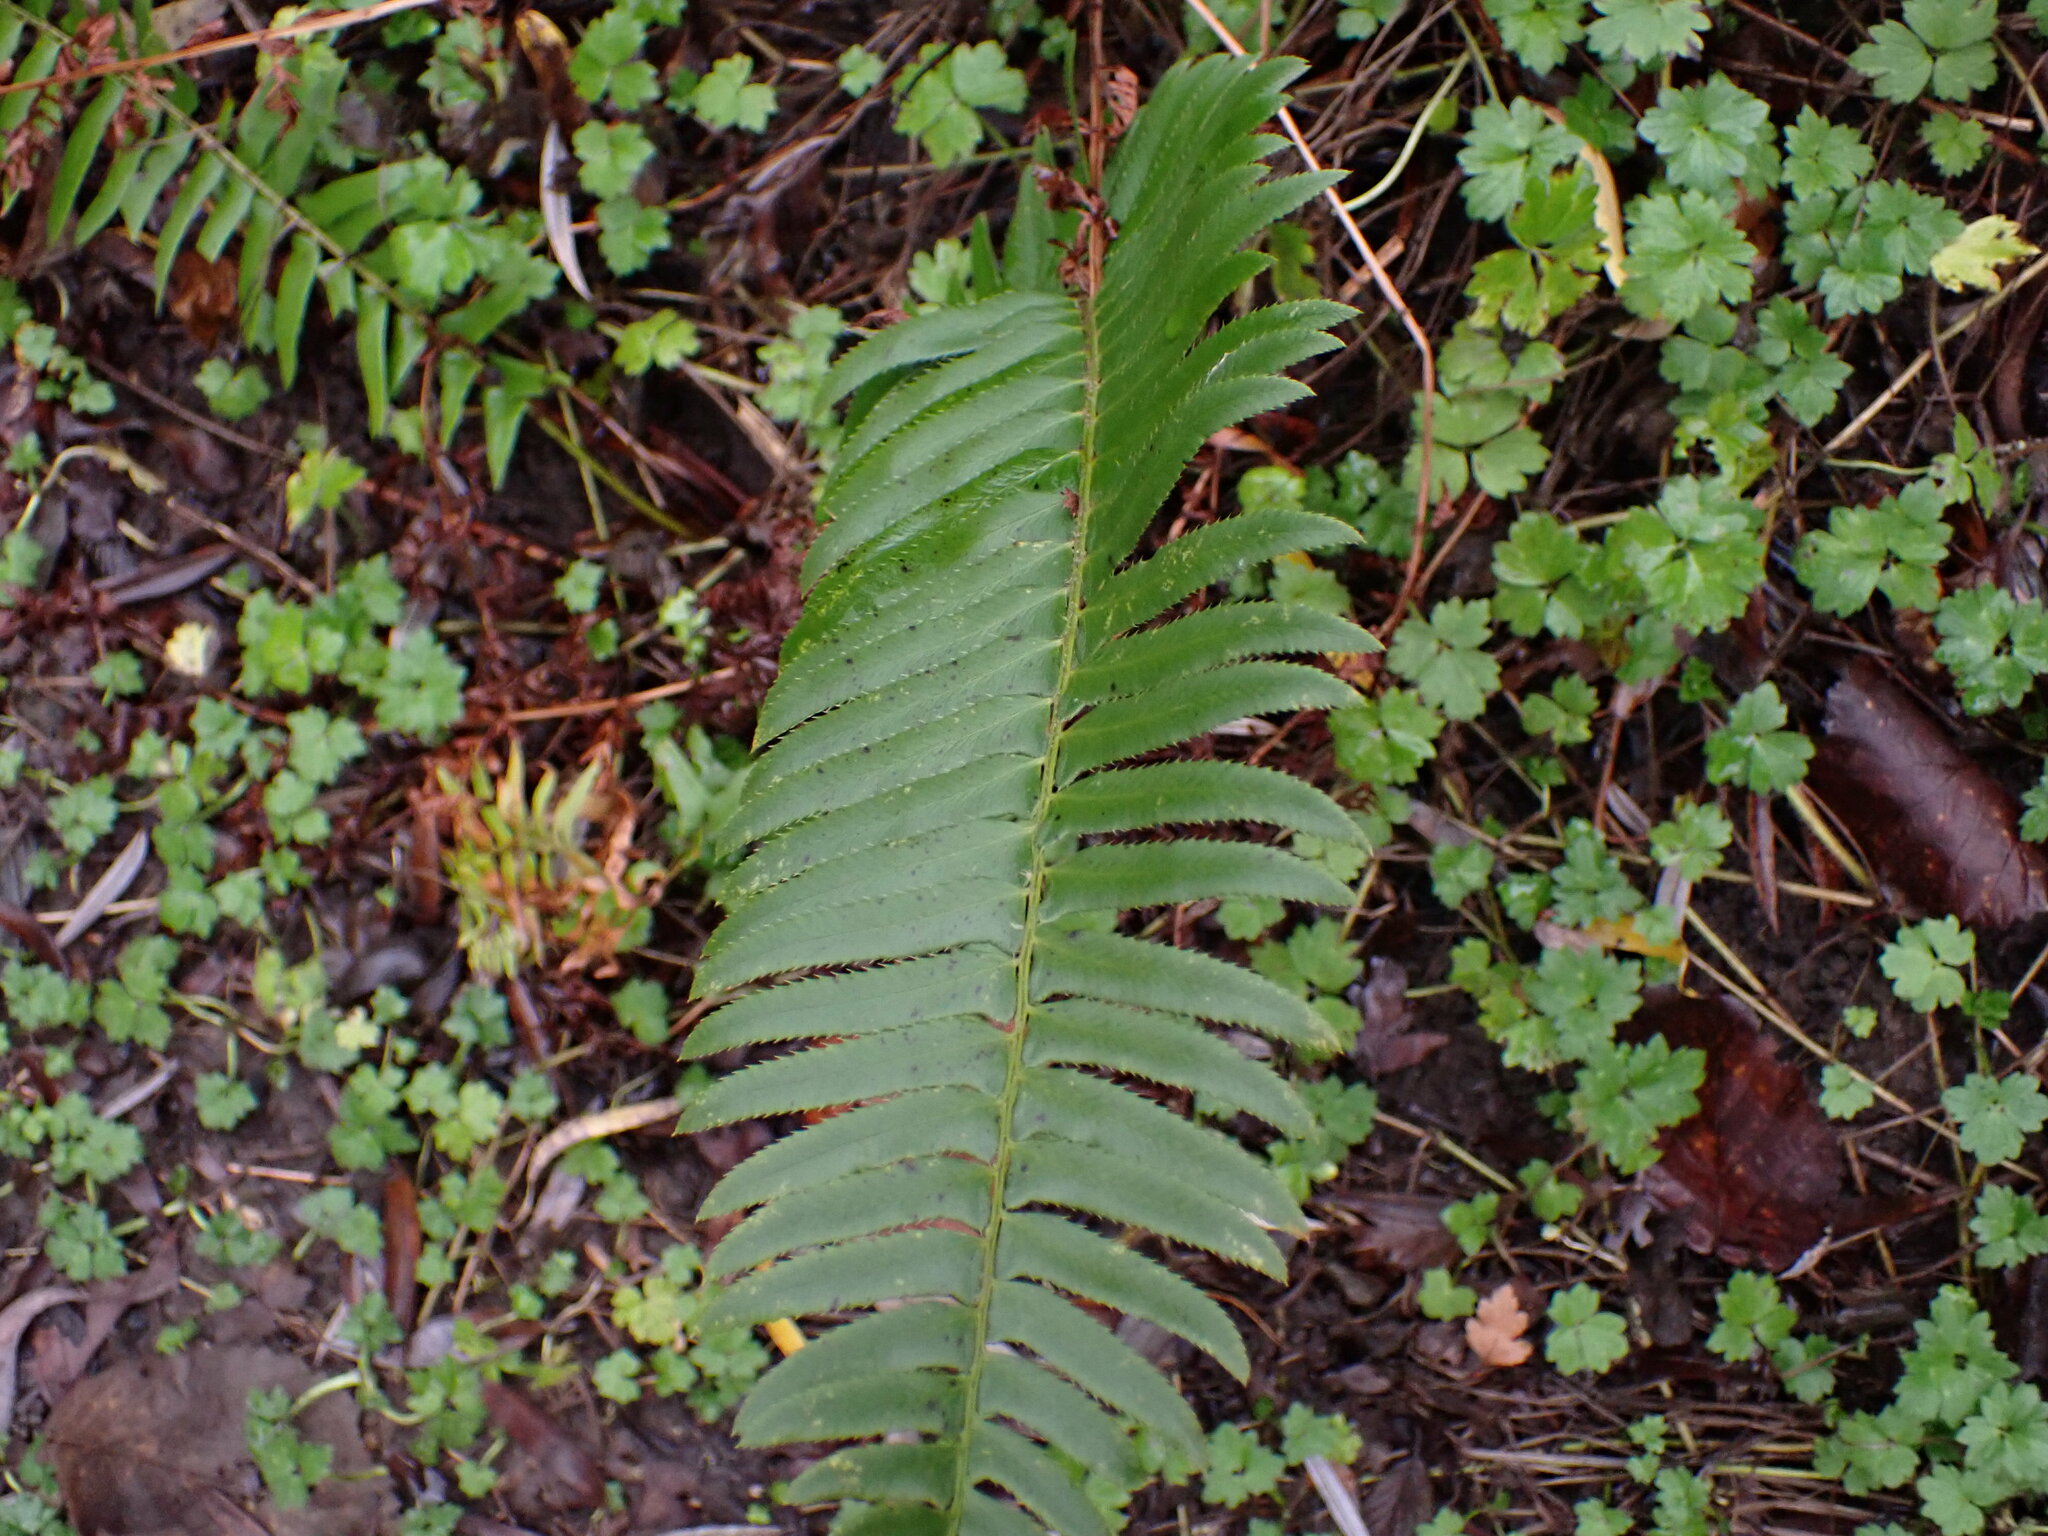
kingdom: Plantae
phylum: Tracheophyta
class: Polypodiopsida
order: Polypodiales
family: Dryopteridaceae
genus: Polystichum
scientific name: Polystichum munitum
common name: Western sword-fern
